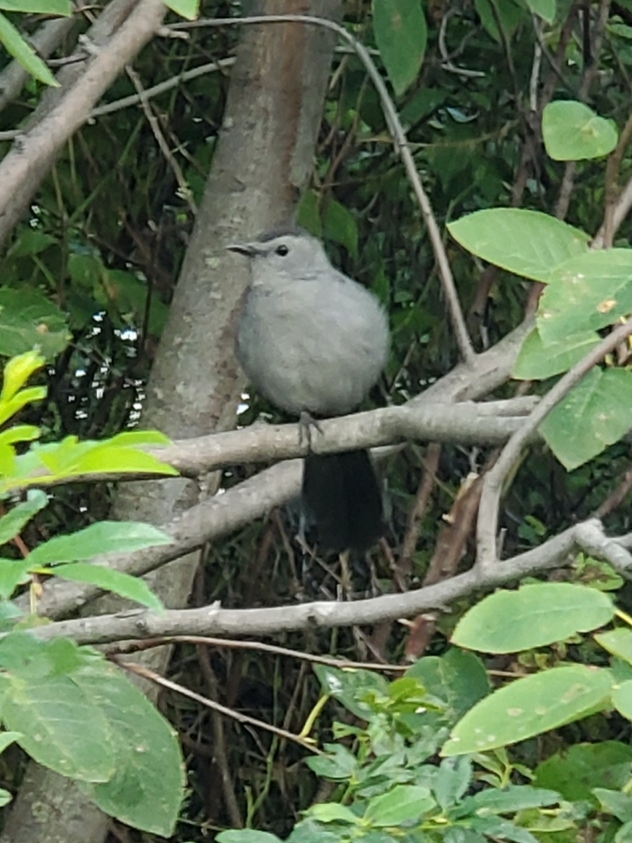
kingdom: Animalia
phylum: Chordata
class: Aves
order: Passeriformes
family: Mimidae
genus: Dumetella
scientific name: Dumetella carolinensis
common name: Gray catbird
